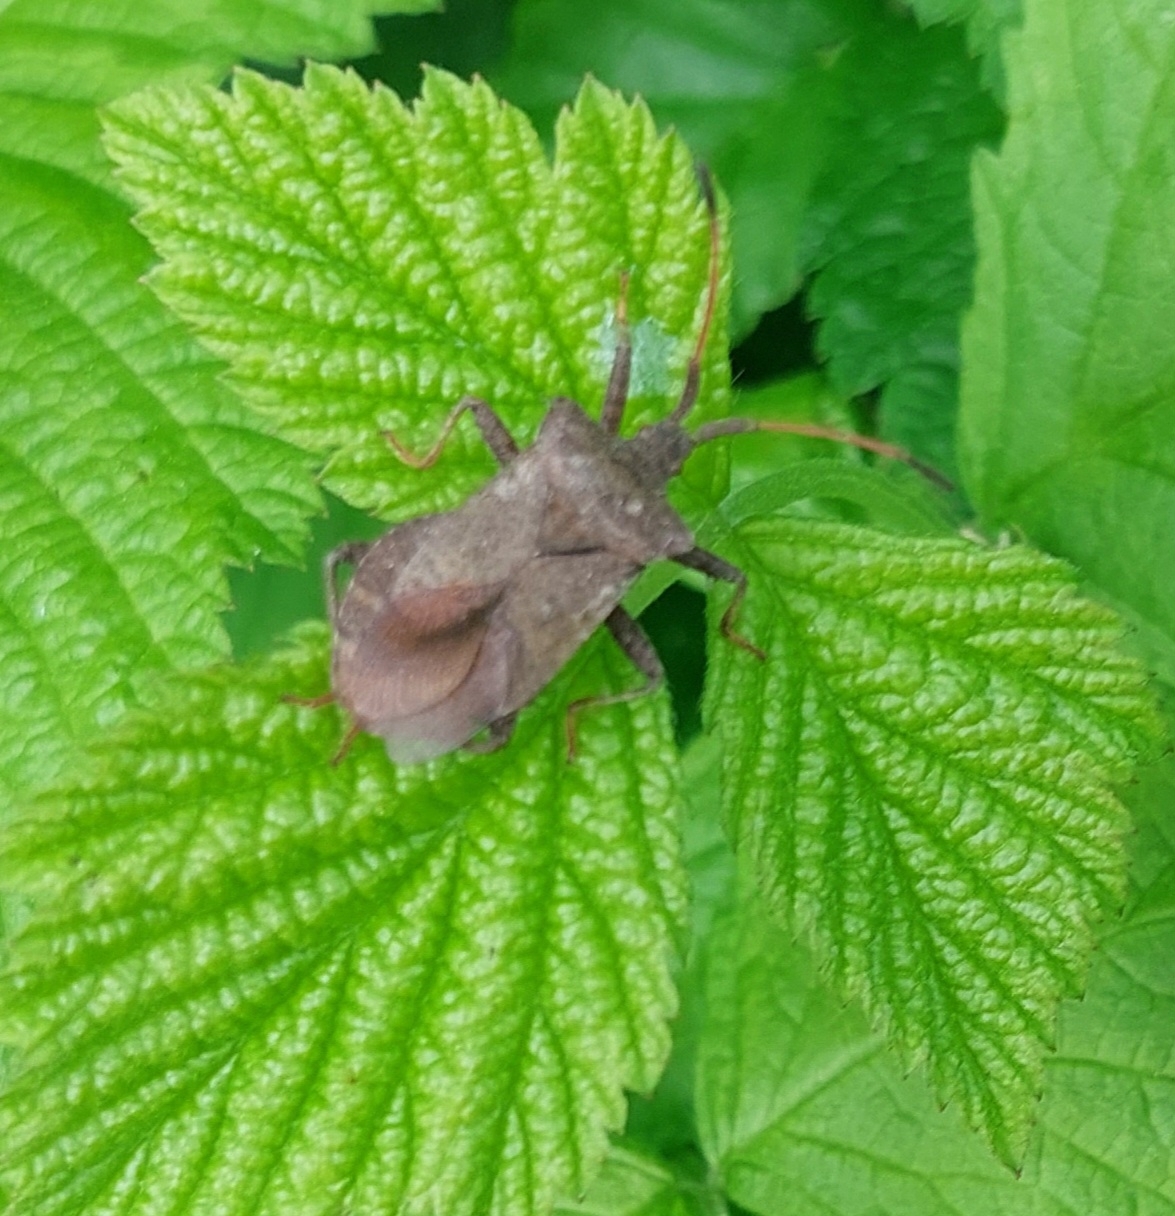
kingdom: Animalia
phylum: Arthropoda
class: Insecta
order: Hemiptera
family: Coreidae
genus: Coreus
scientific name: Coreus marginatus
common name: Dock bug
